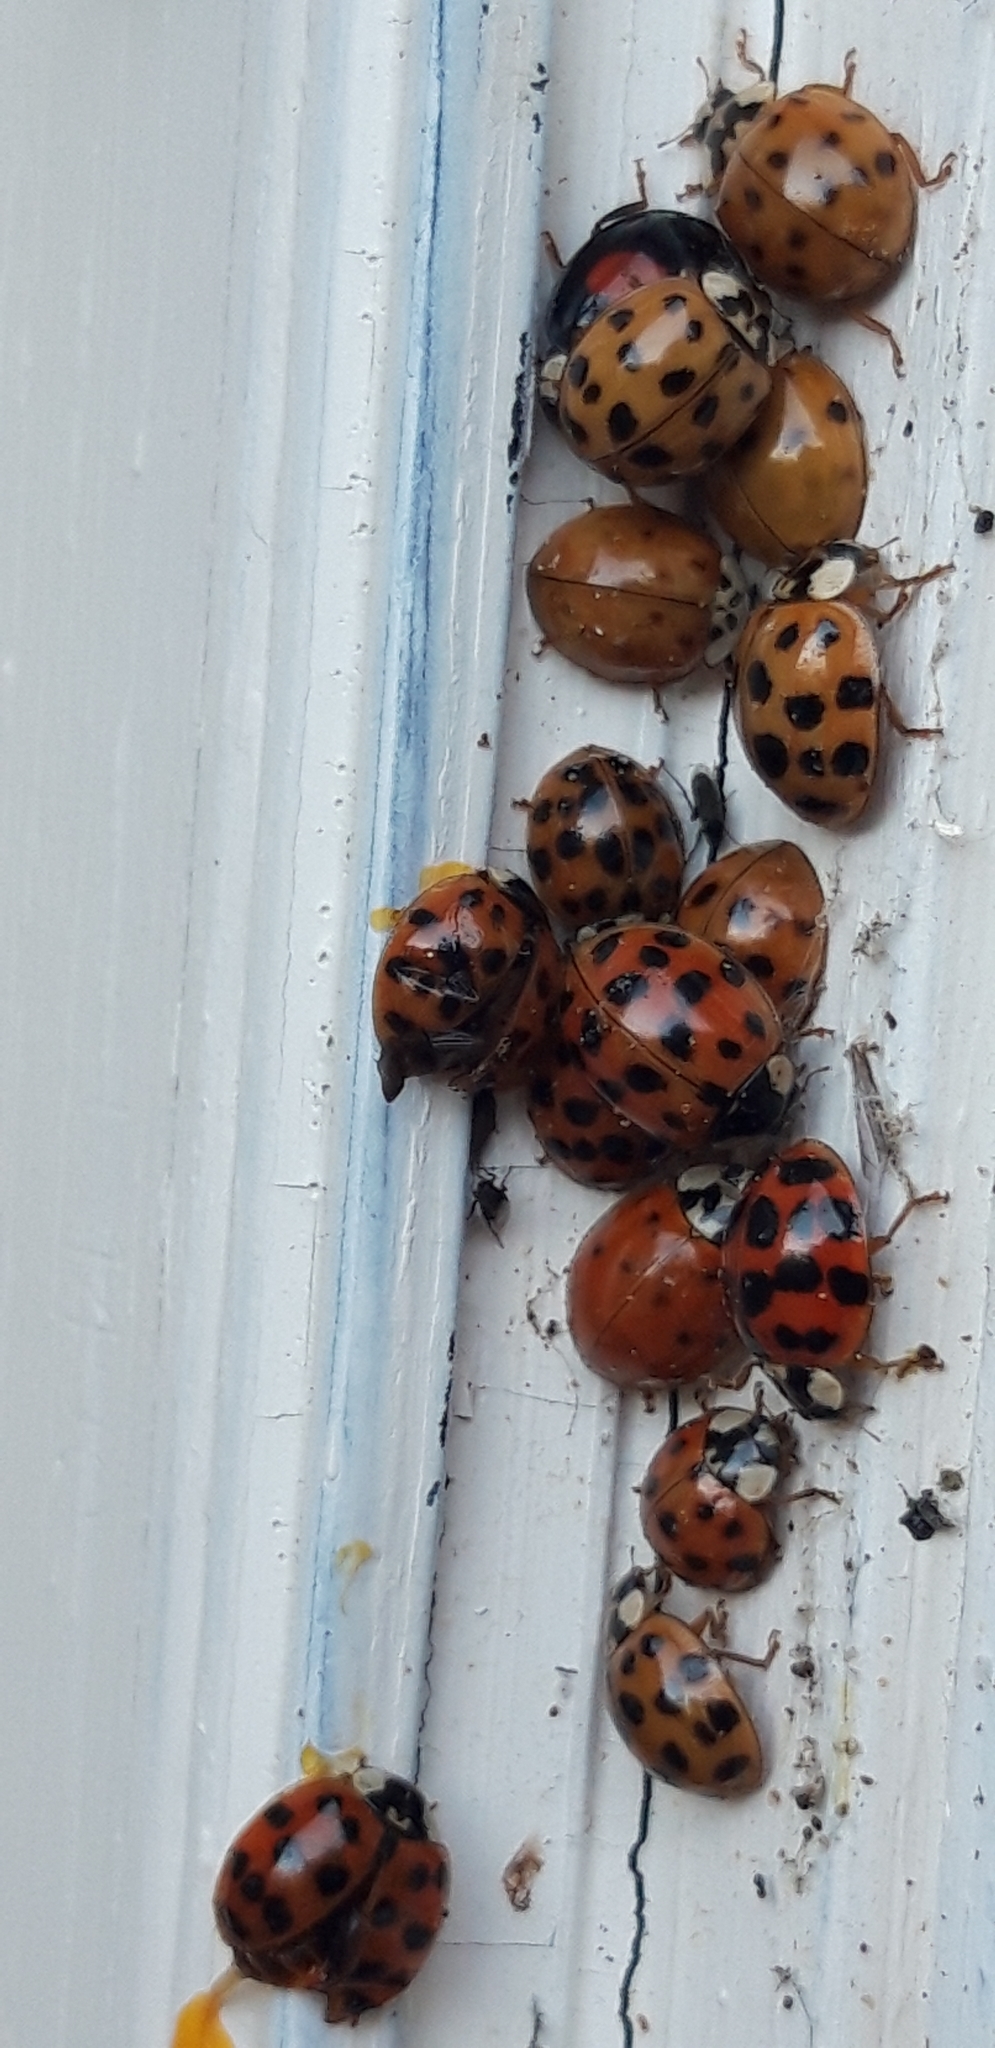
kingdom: Animalia
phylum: Arthropoda
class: Insecta
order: Coleoptera
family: Coccinellidae
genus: Harmonia
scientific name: Harmonia axyridis
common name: Harlequin ladybird
